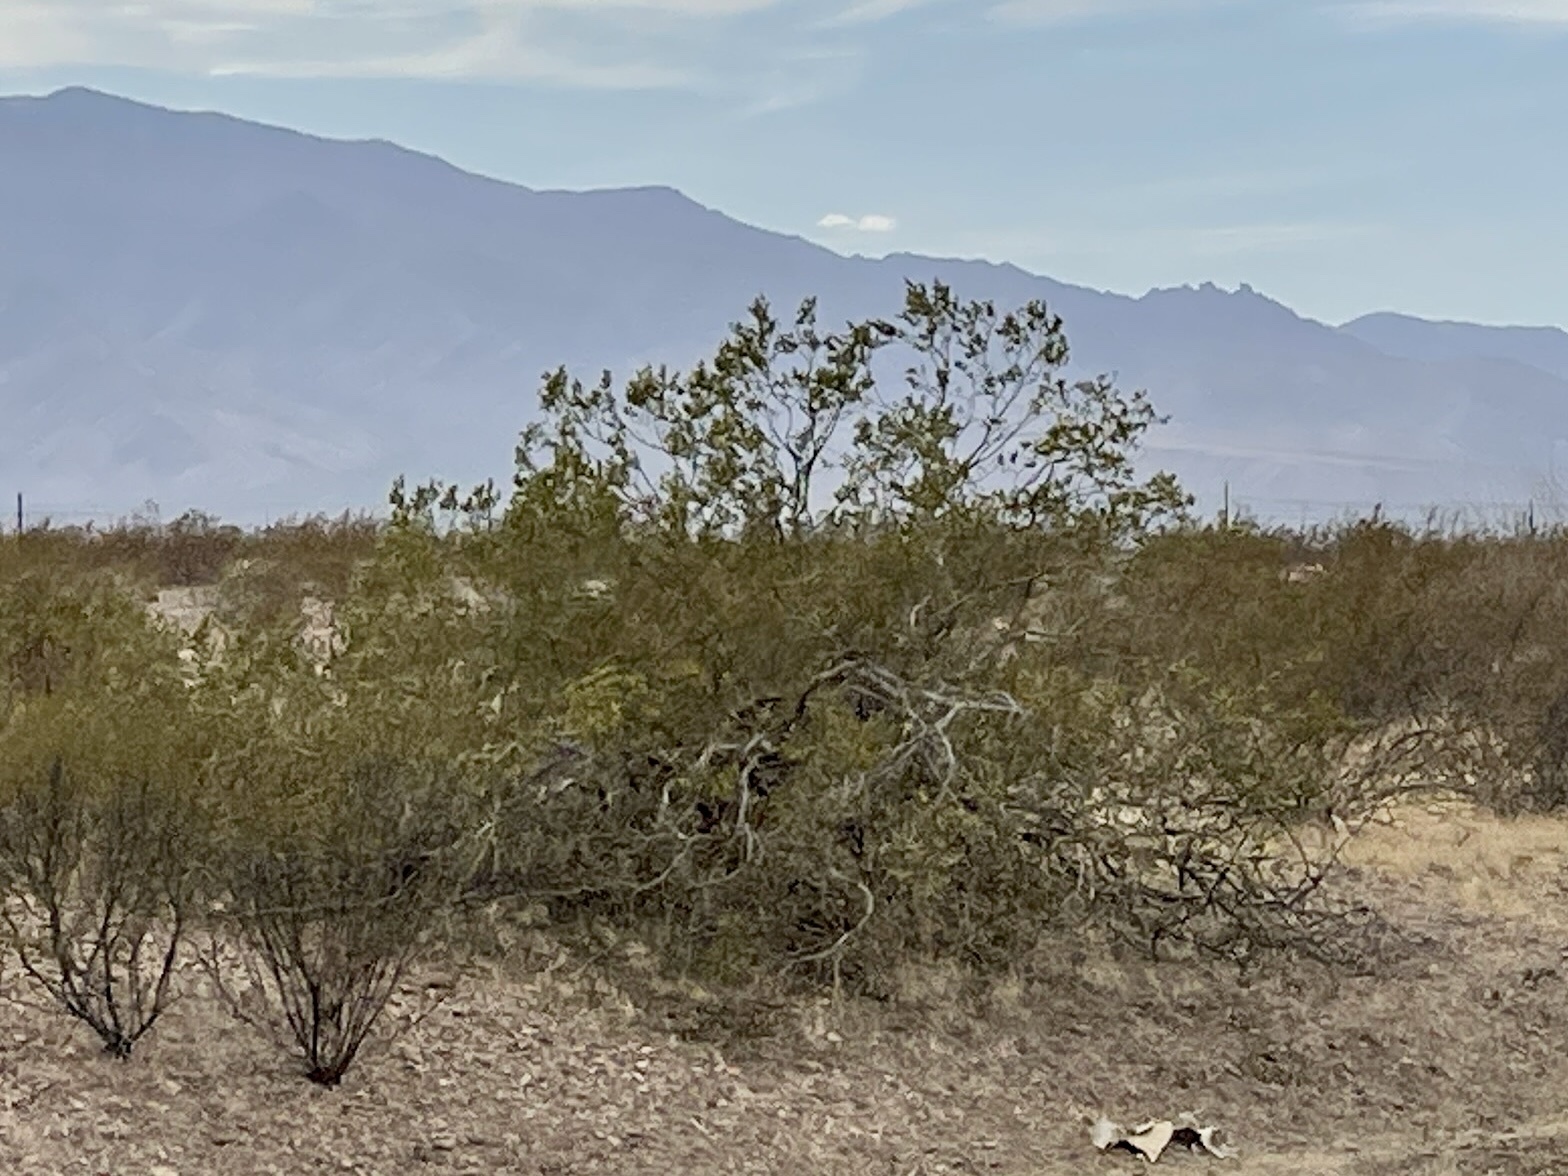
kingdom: Plantae
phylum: Tracheophyta
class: Magnoliopsida
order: Zygophyllales
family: Zygophyllaceae
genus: Larrea
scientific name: Larrea tridentata
